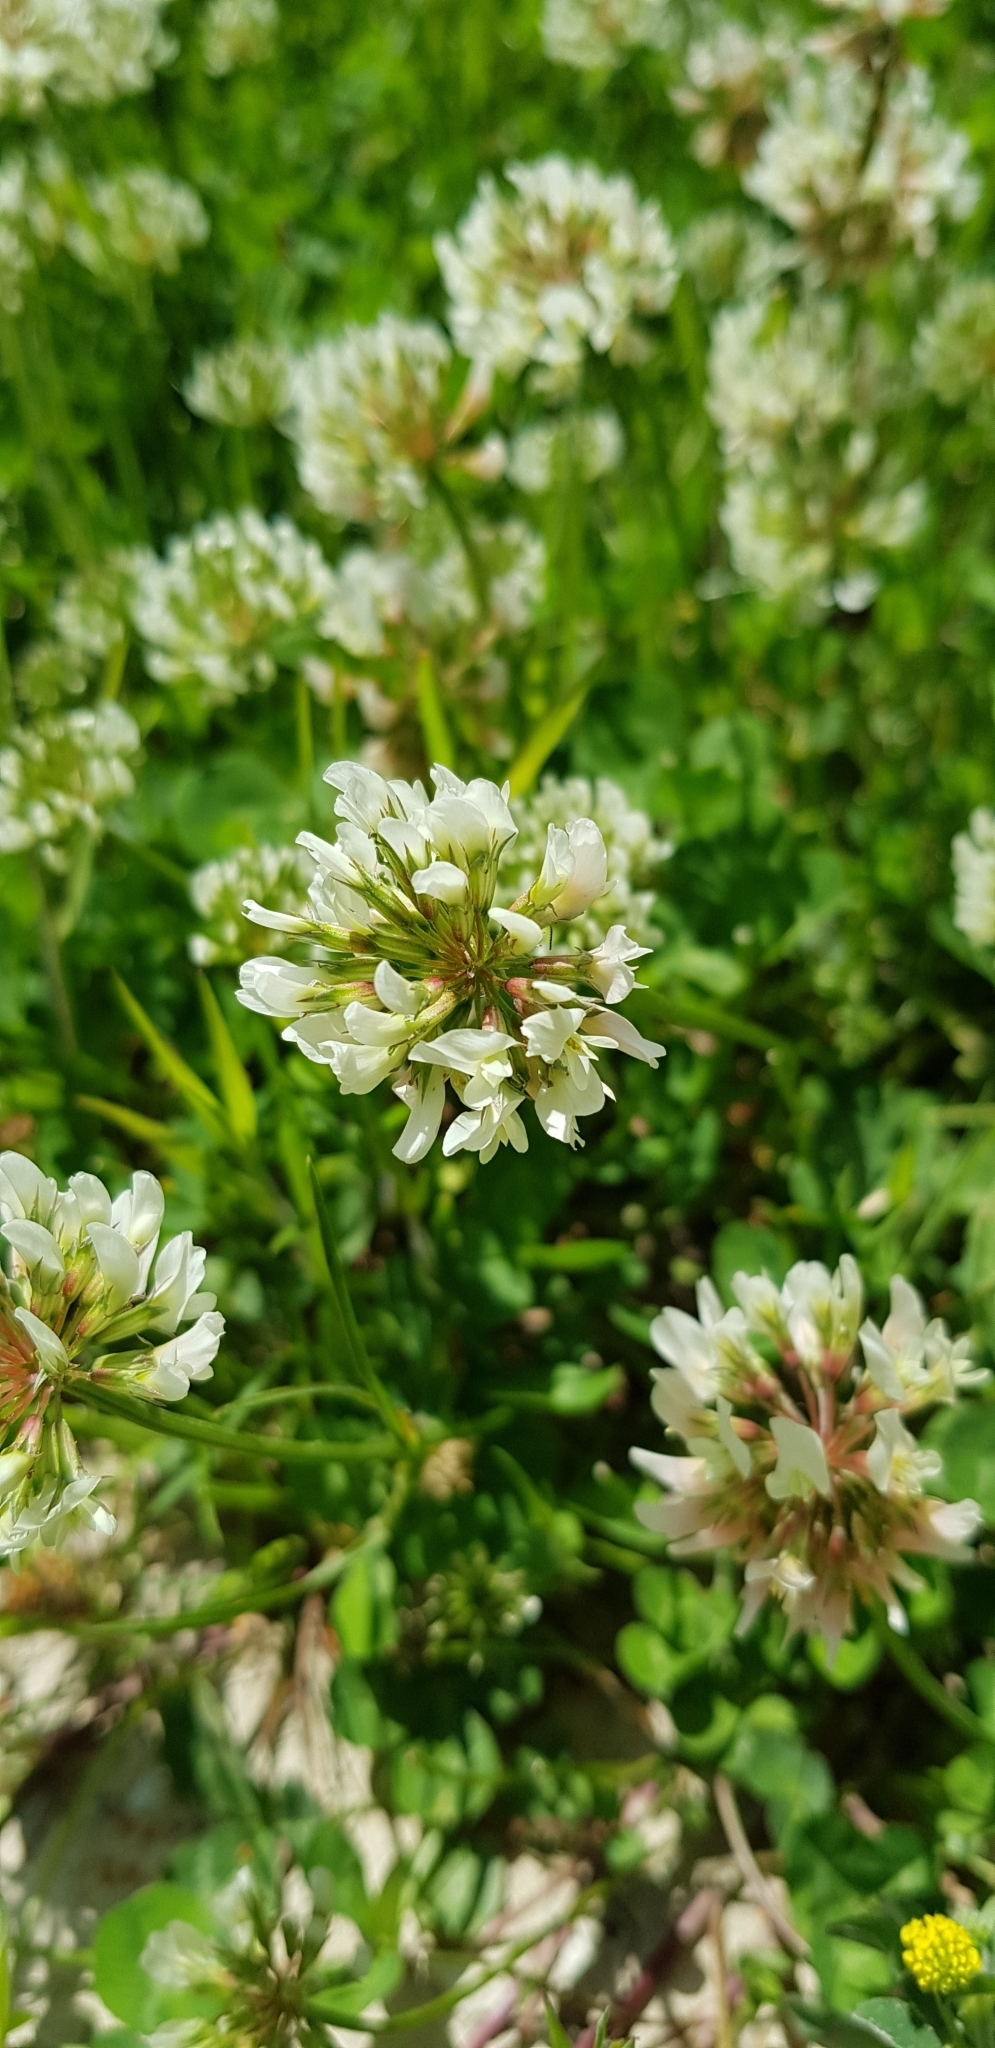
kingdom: Plantae
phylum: Tracheophyta
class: Magnoliopsida
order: Fabales
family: Fabaceae
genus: Trifolium
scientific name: Trifolium repens
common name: White clover
